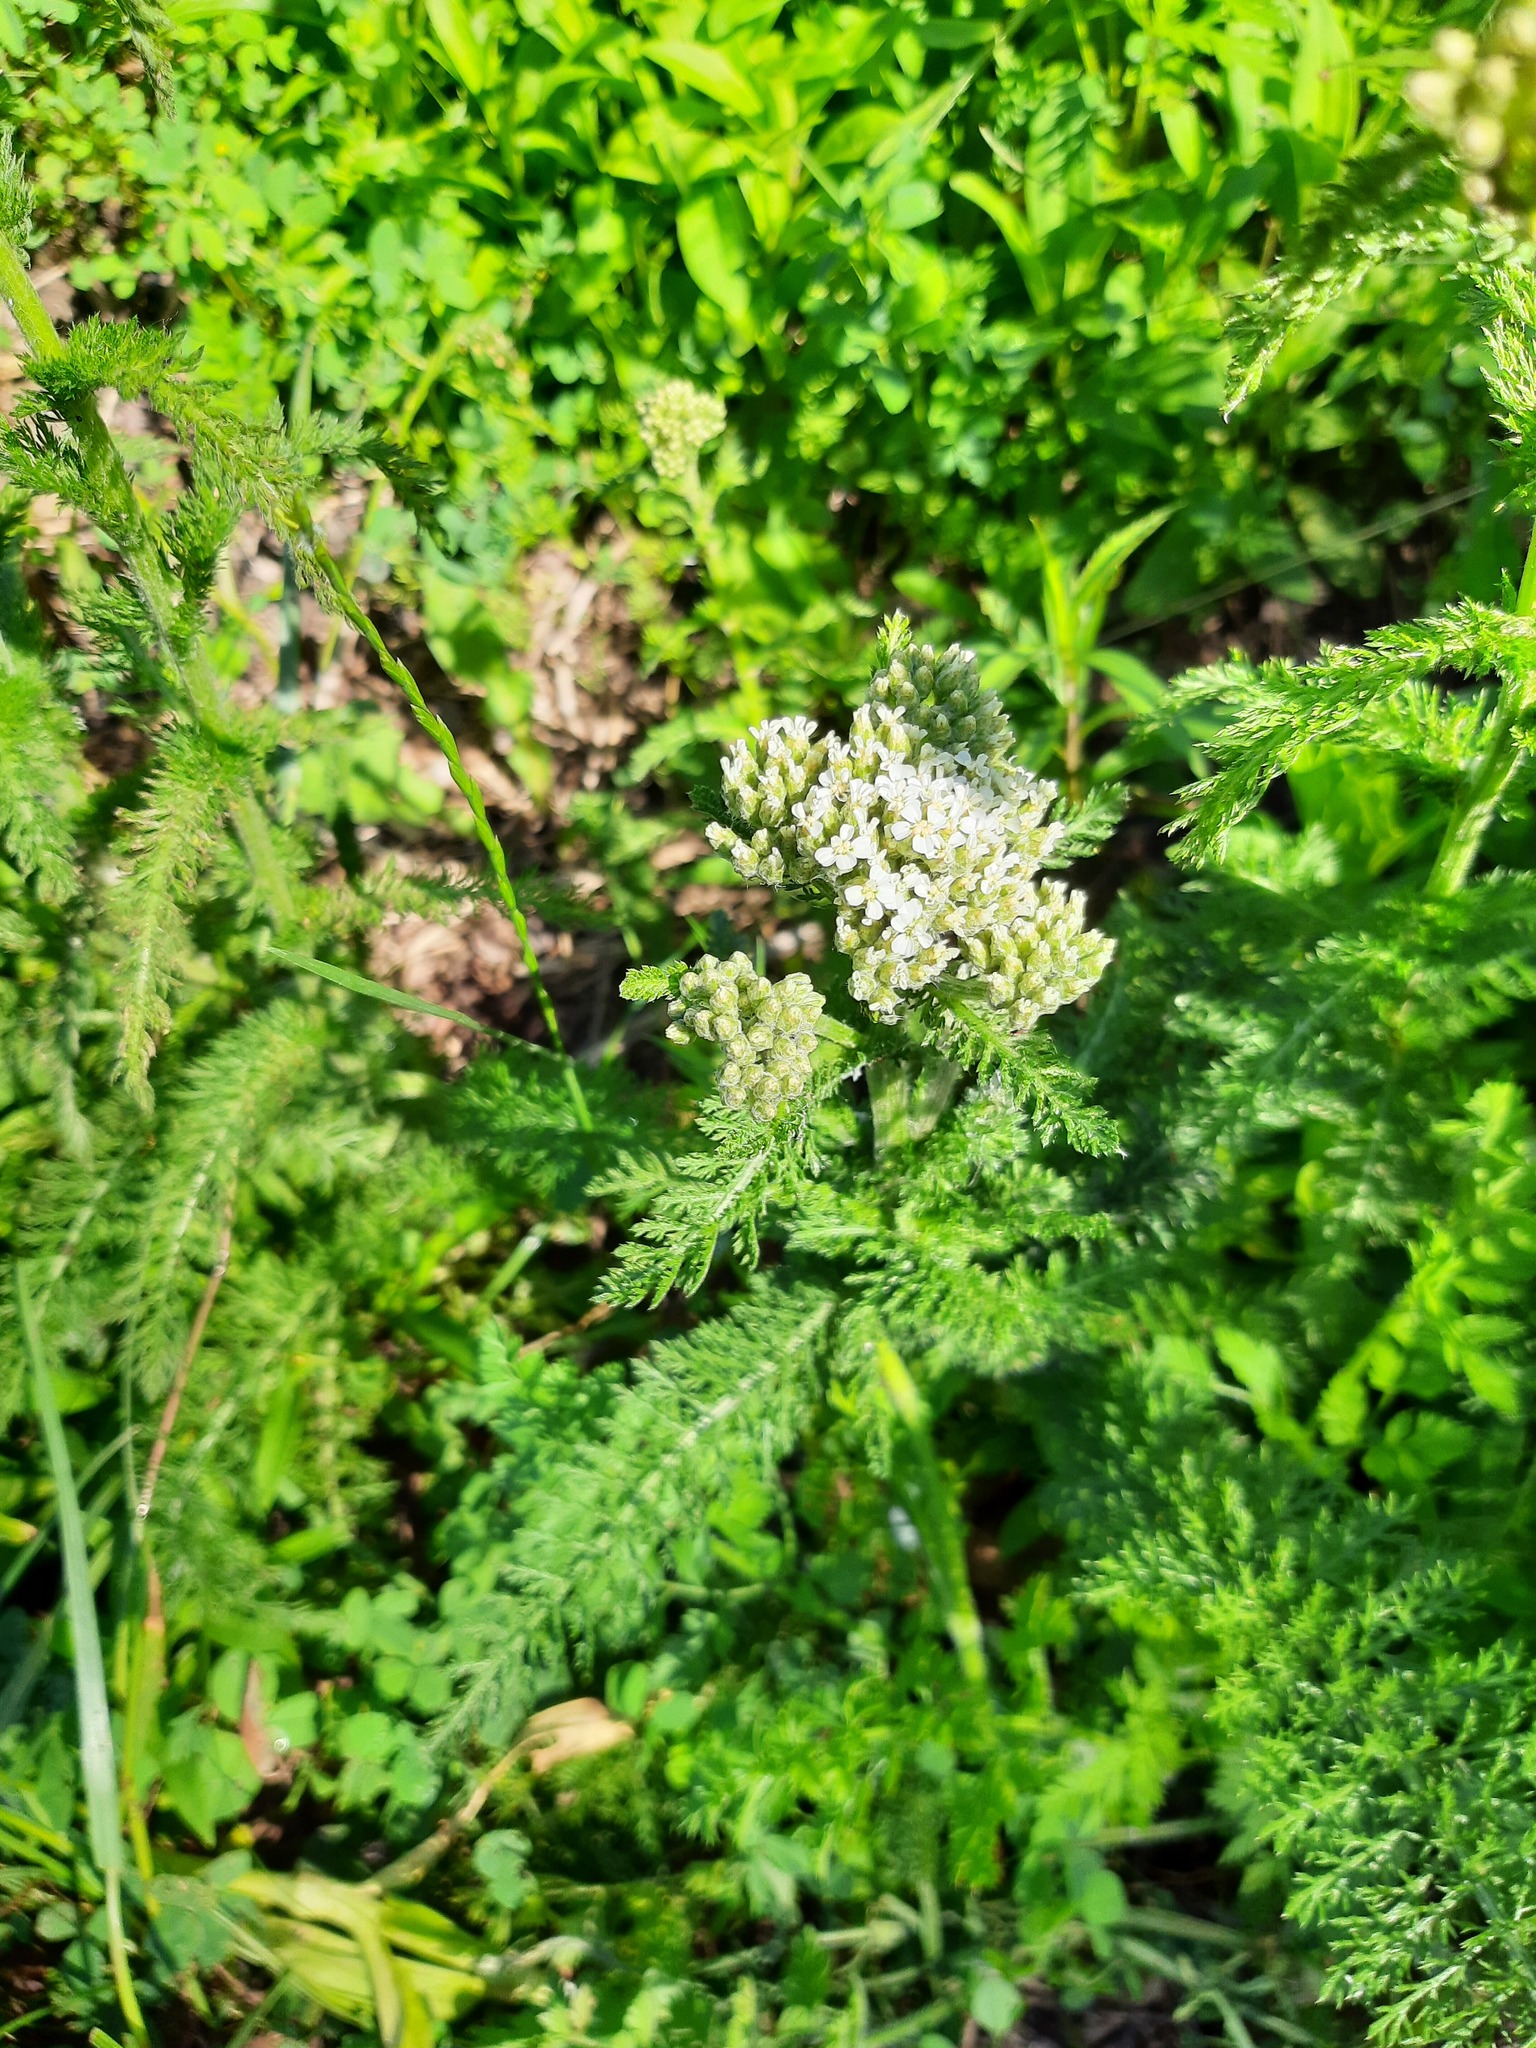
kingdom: Plantae
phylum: Tracheophyta
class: Magnoliopsida
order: Asterales
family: Asteraceae
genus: Achillea
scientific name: Achillea millefolium
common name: Yarrow
